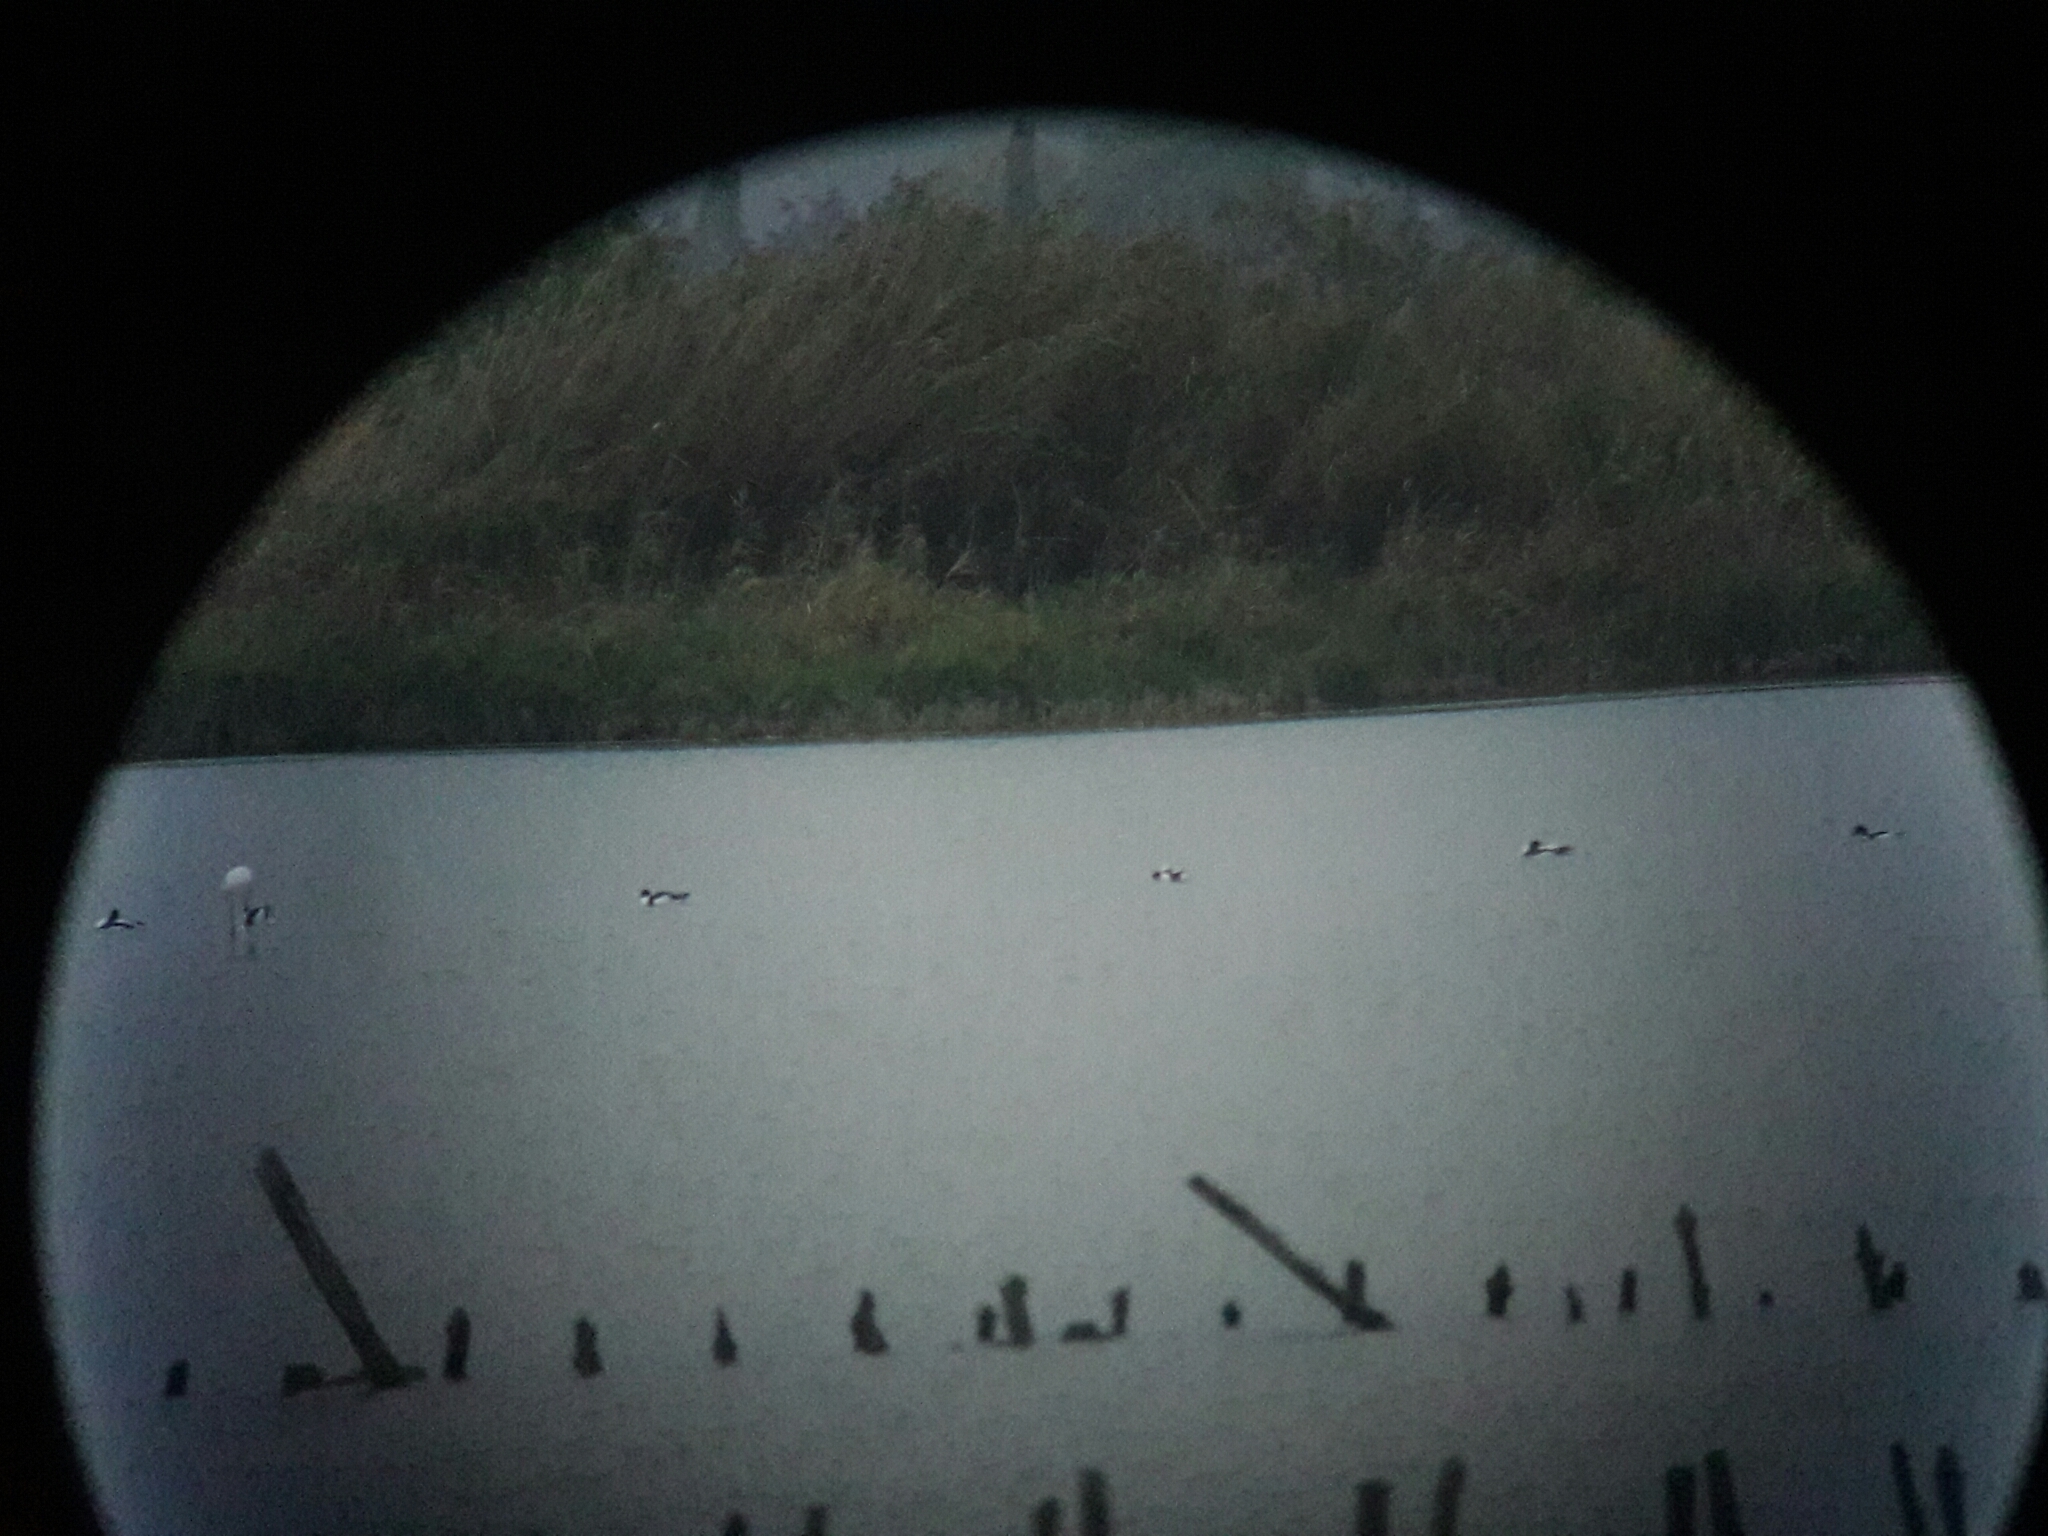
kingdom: Animalia
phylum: Chordata
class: Aves
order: Anseriformes
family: Anatidae
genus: Tadorna
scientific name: Tadorna tadorna
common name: Common shelduck
